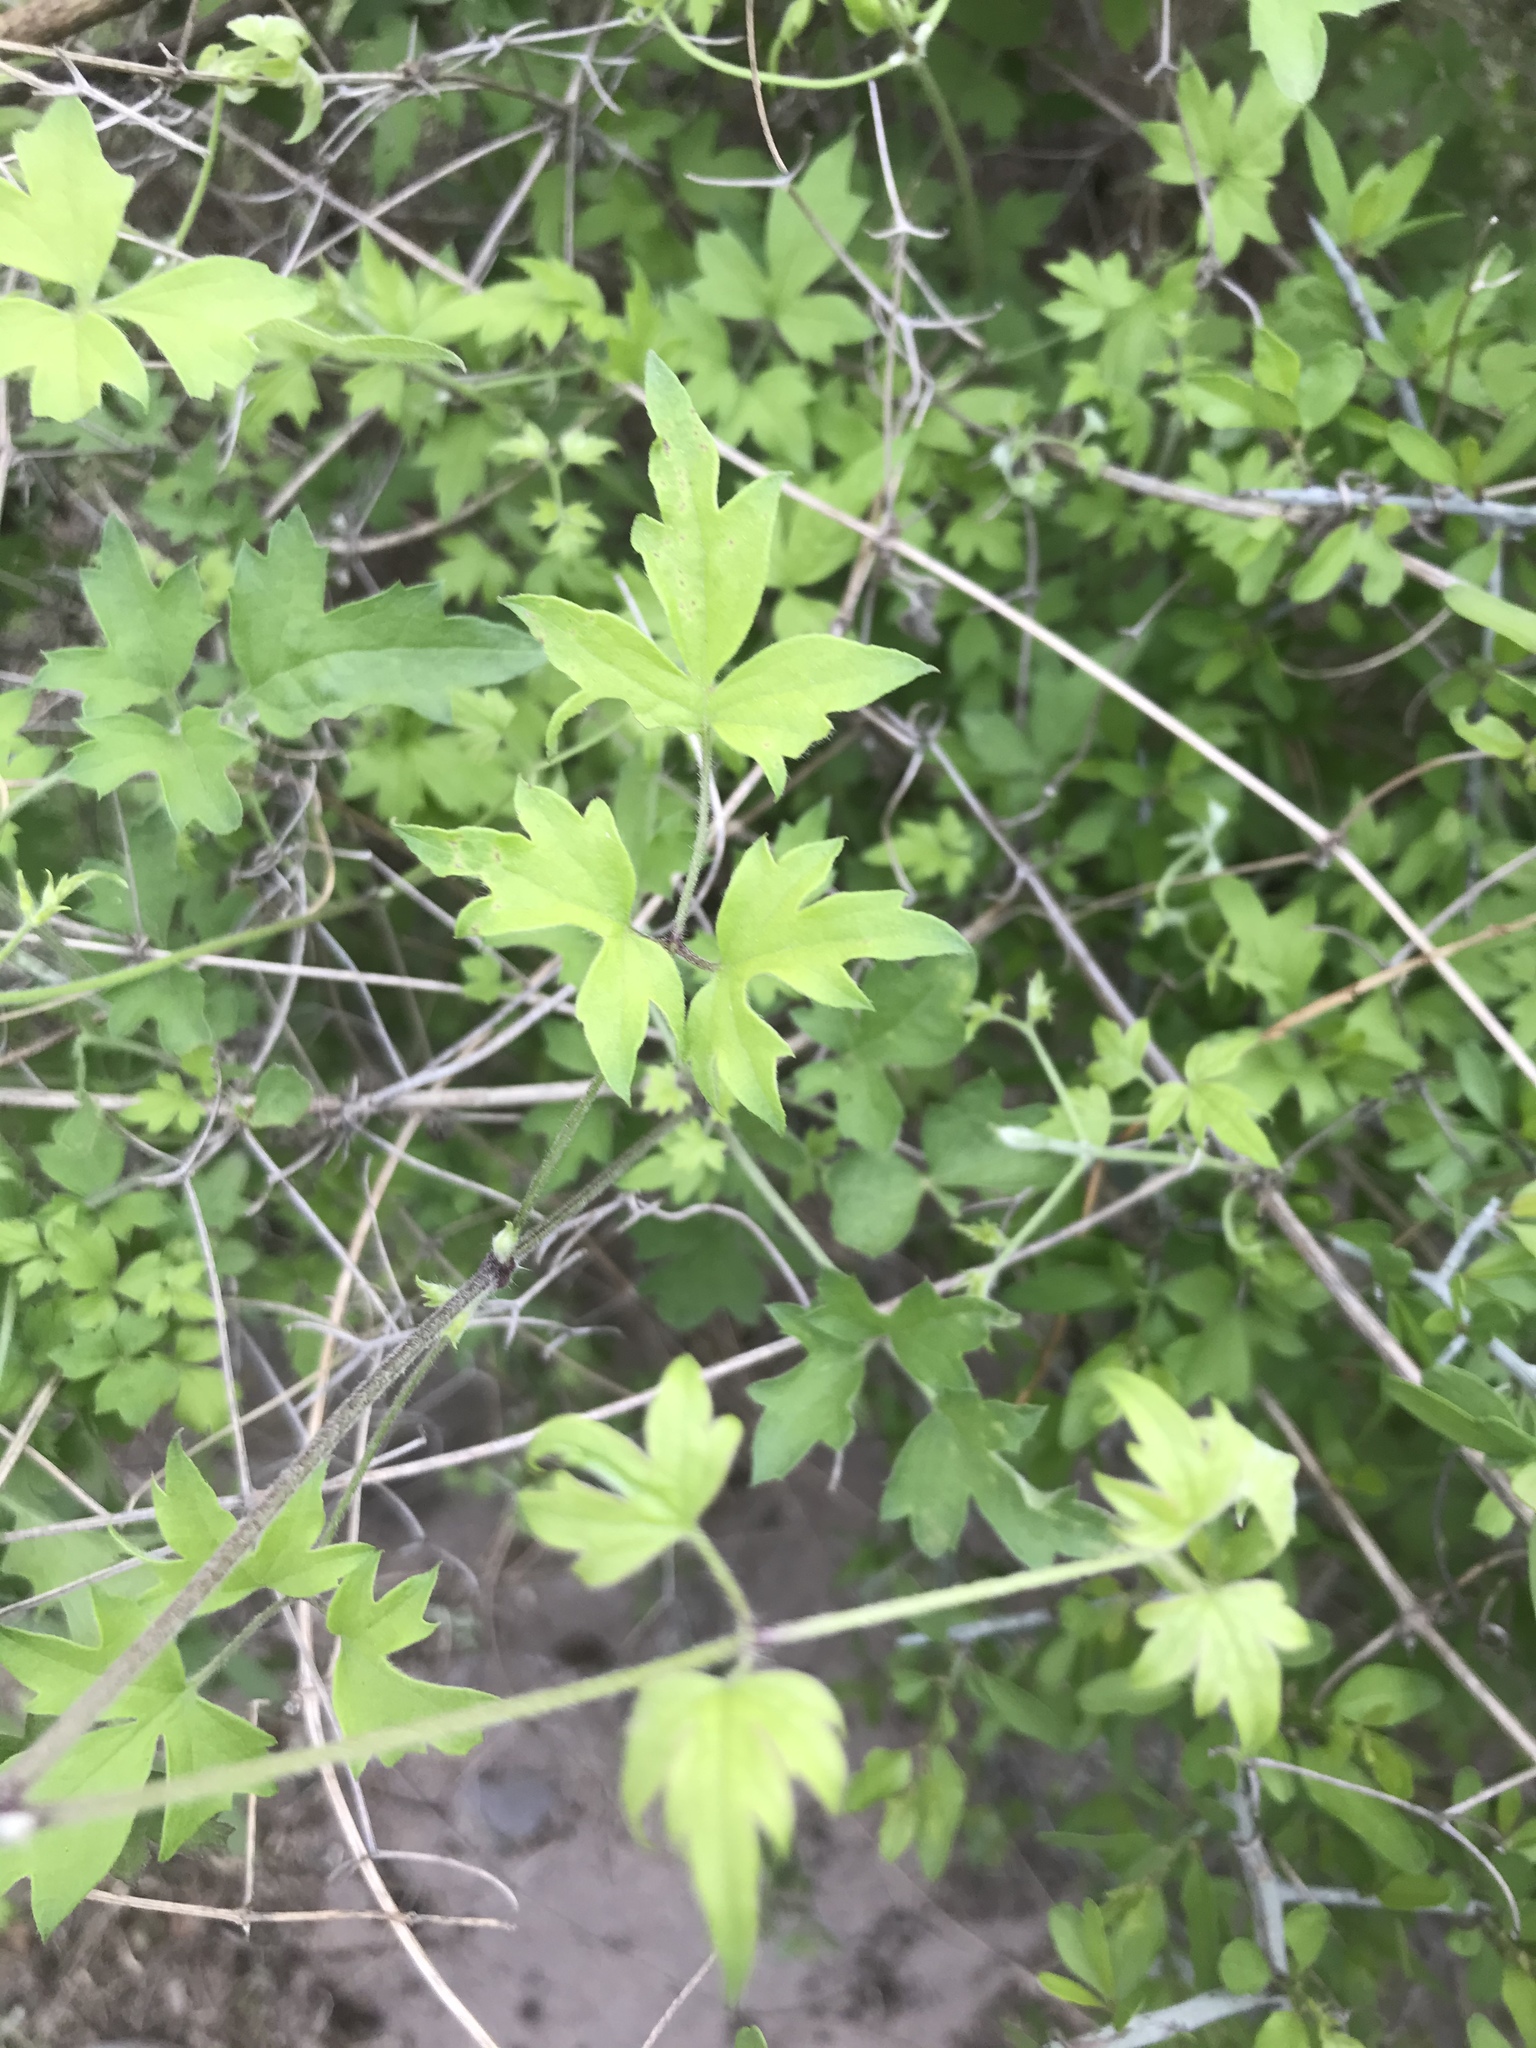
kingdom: Plantae
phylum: Tracheophyta
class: Magnoliopsida
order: Ranunculales
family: Ranunculaceae
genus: Clematis
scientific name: Clematis drummondii
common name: Texas virgin's bower
